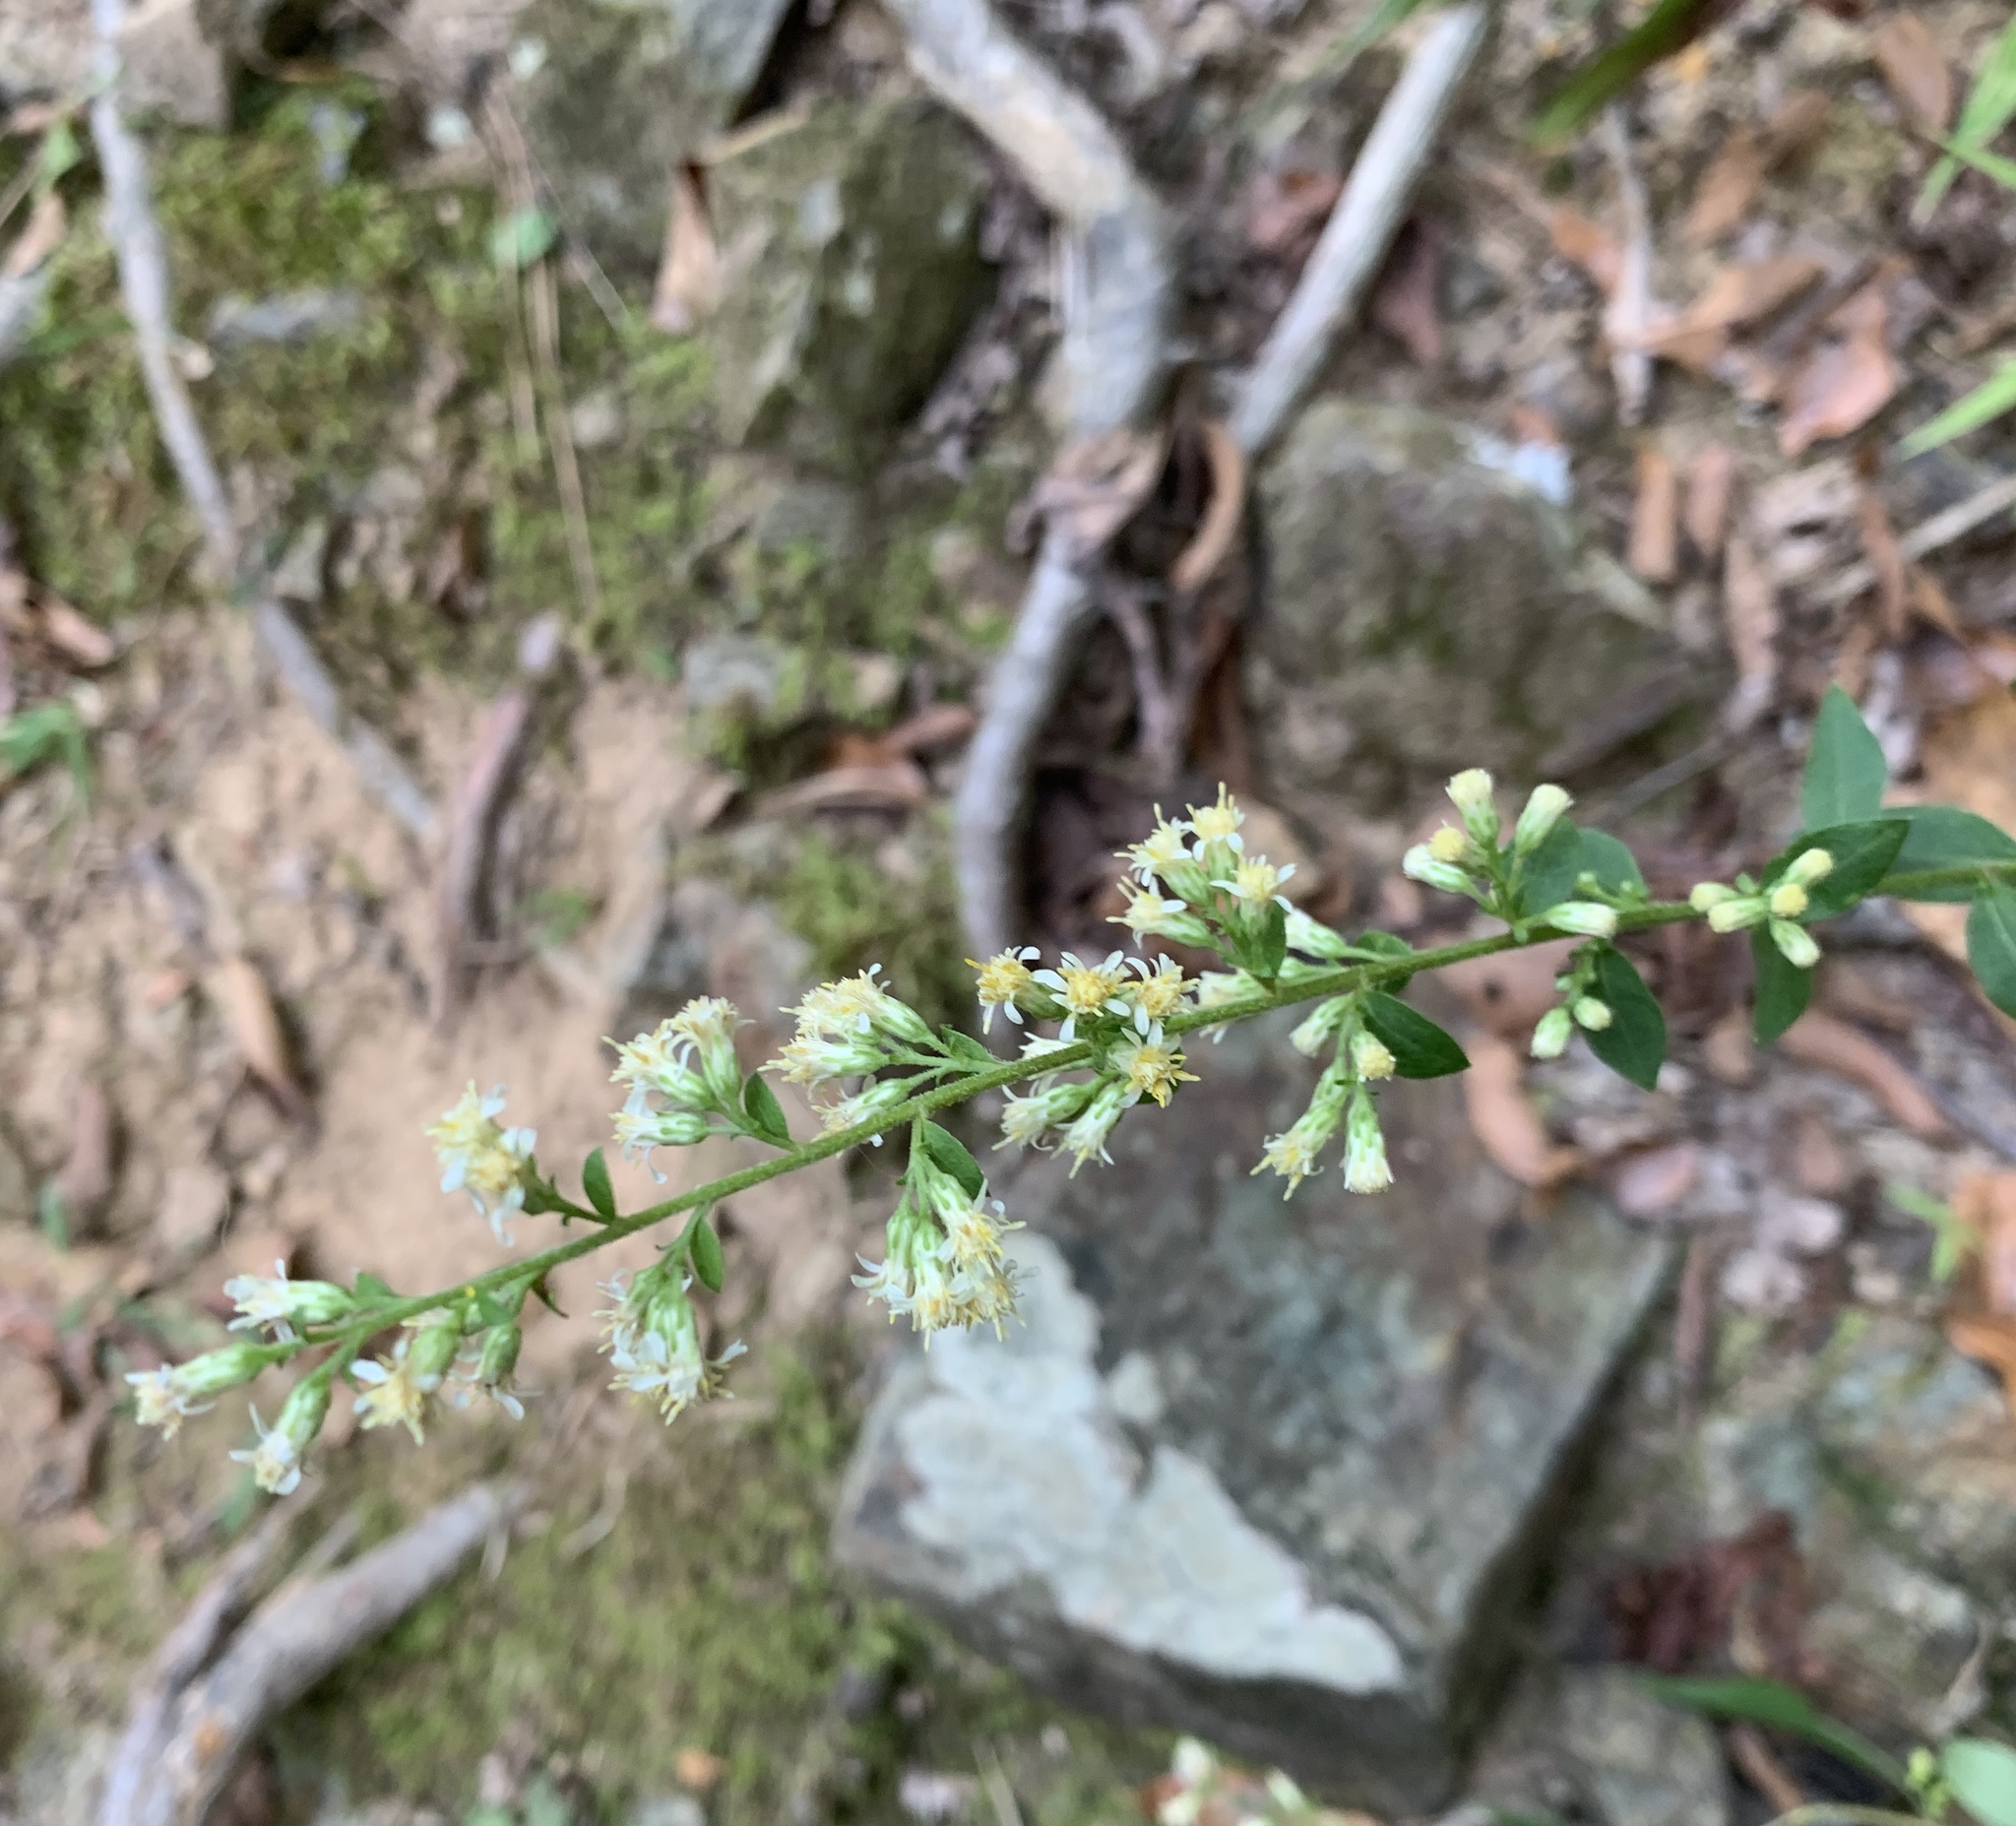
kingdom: Plantae
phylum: Tracheophyta
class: Magnoliopsida
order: Asterales
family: Asteraceae
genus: Solidago
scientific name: Solidago bicolor
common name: Silverrod
